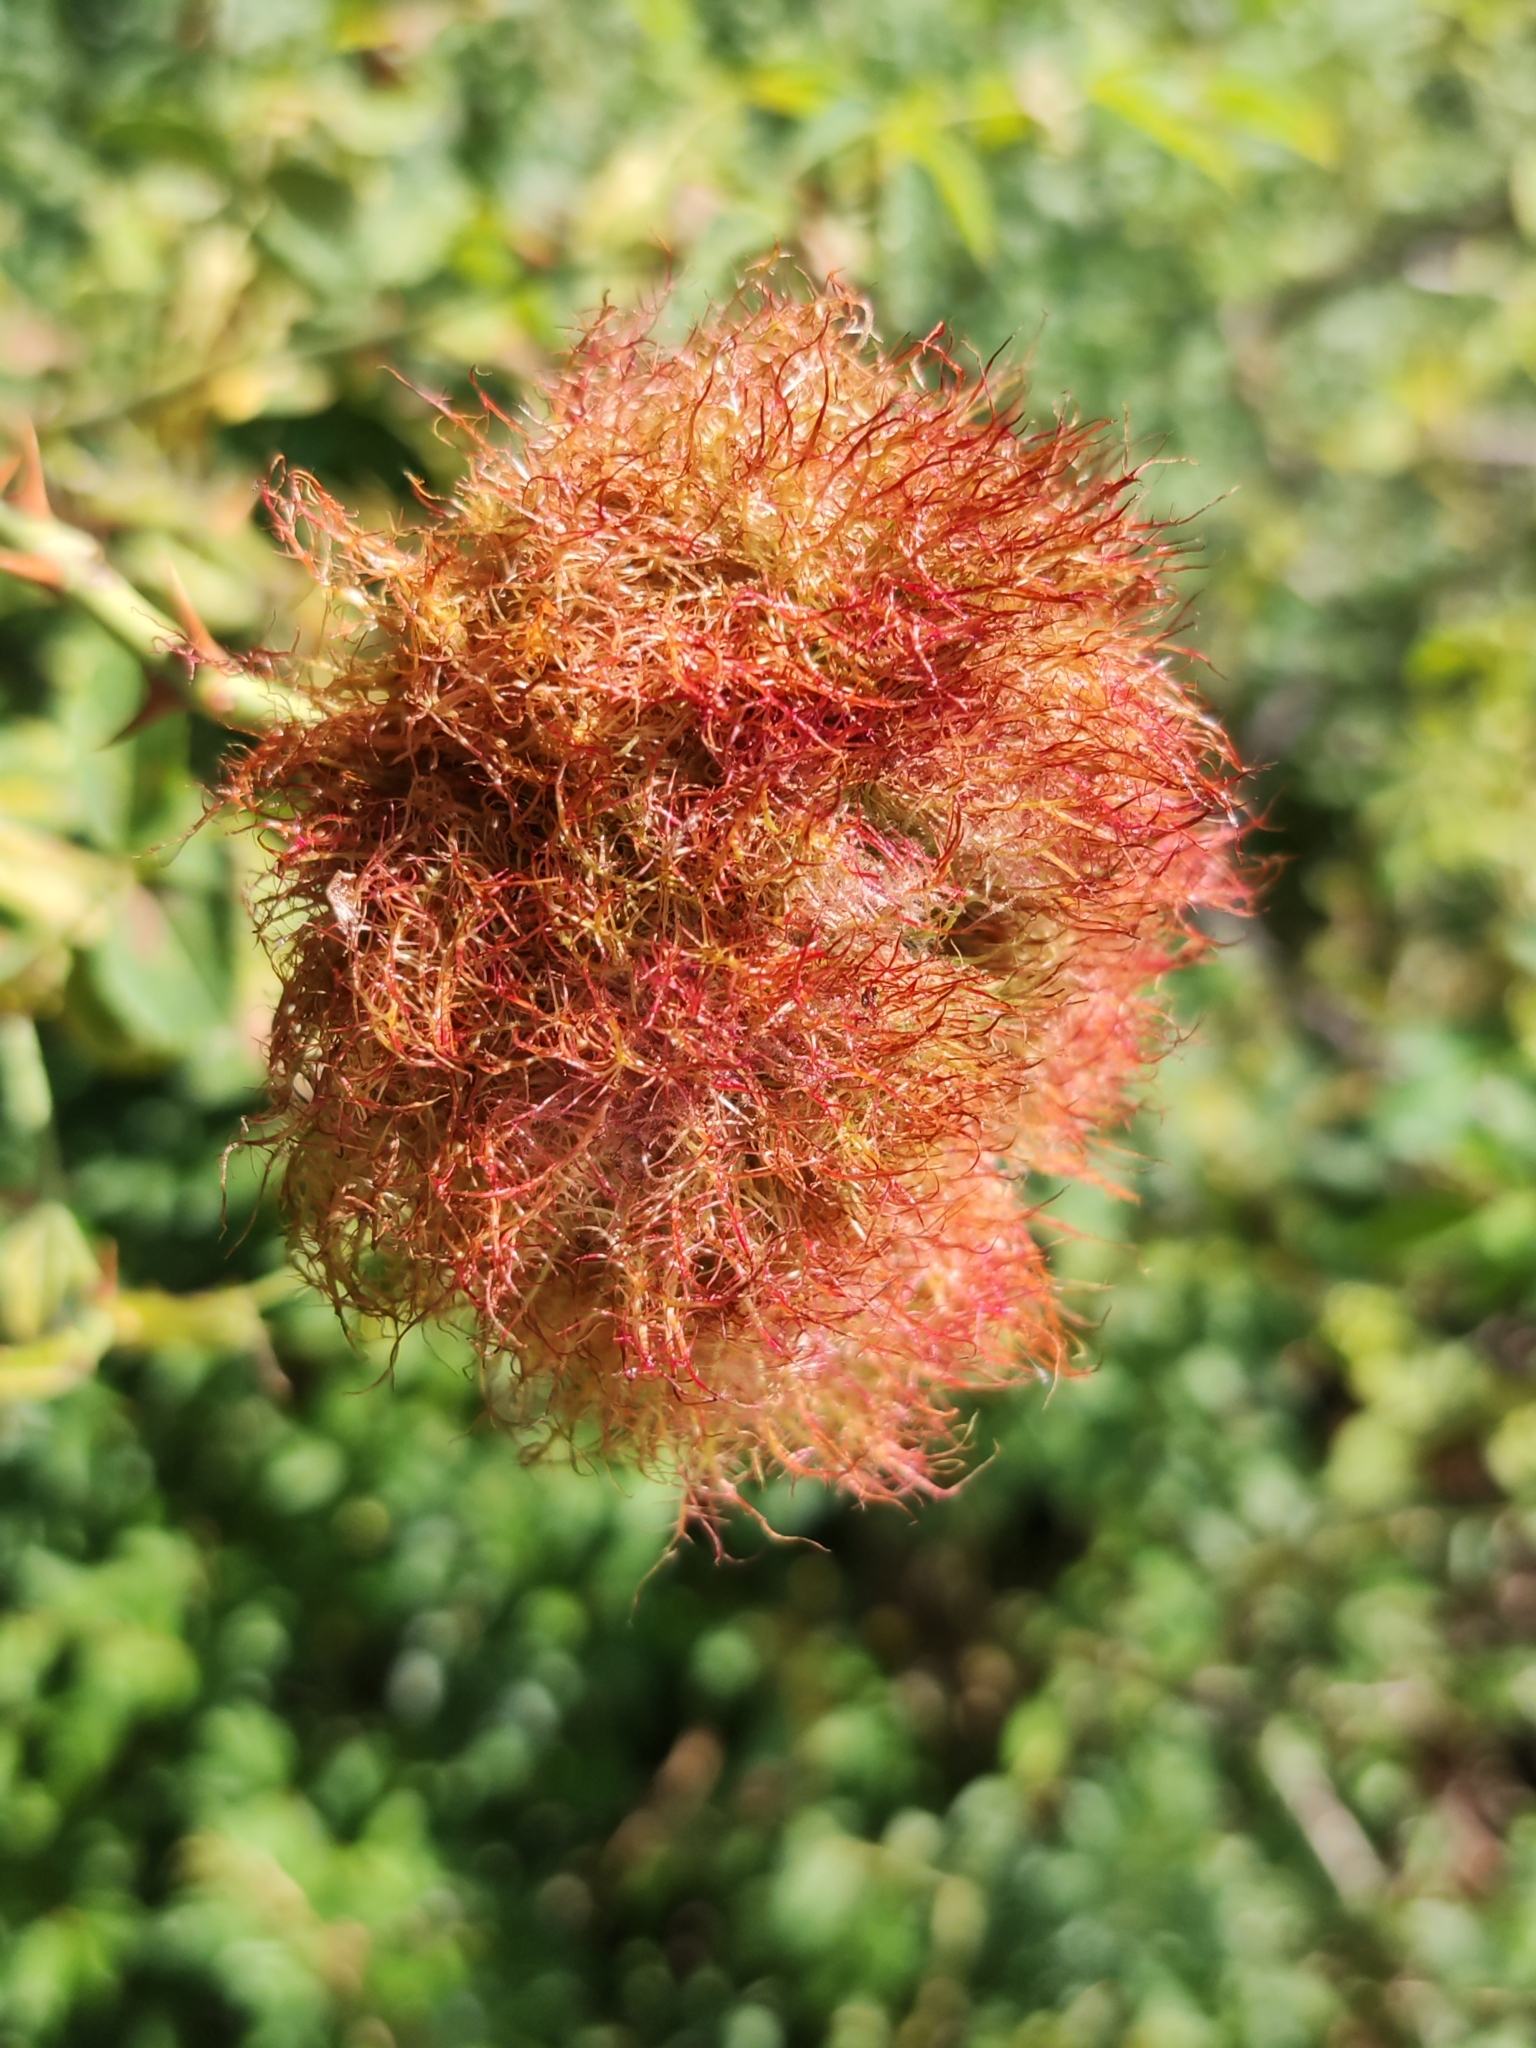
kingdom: Animalia
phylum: Arthropoda
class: Insecta
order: Hymenoptera
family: Cynipidae
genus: Diplolepis
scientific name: Diplolepis rosae
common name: Bedeguar gall
